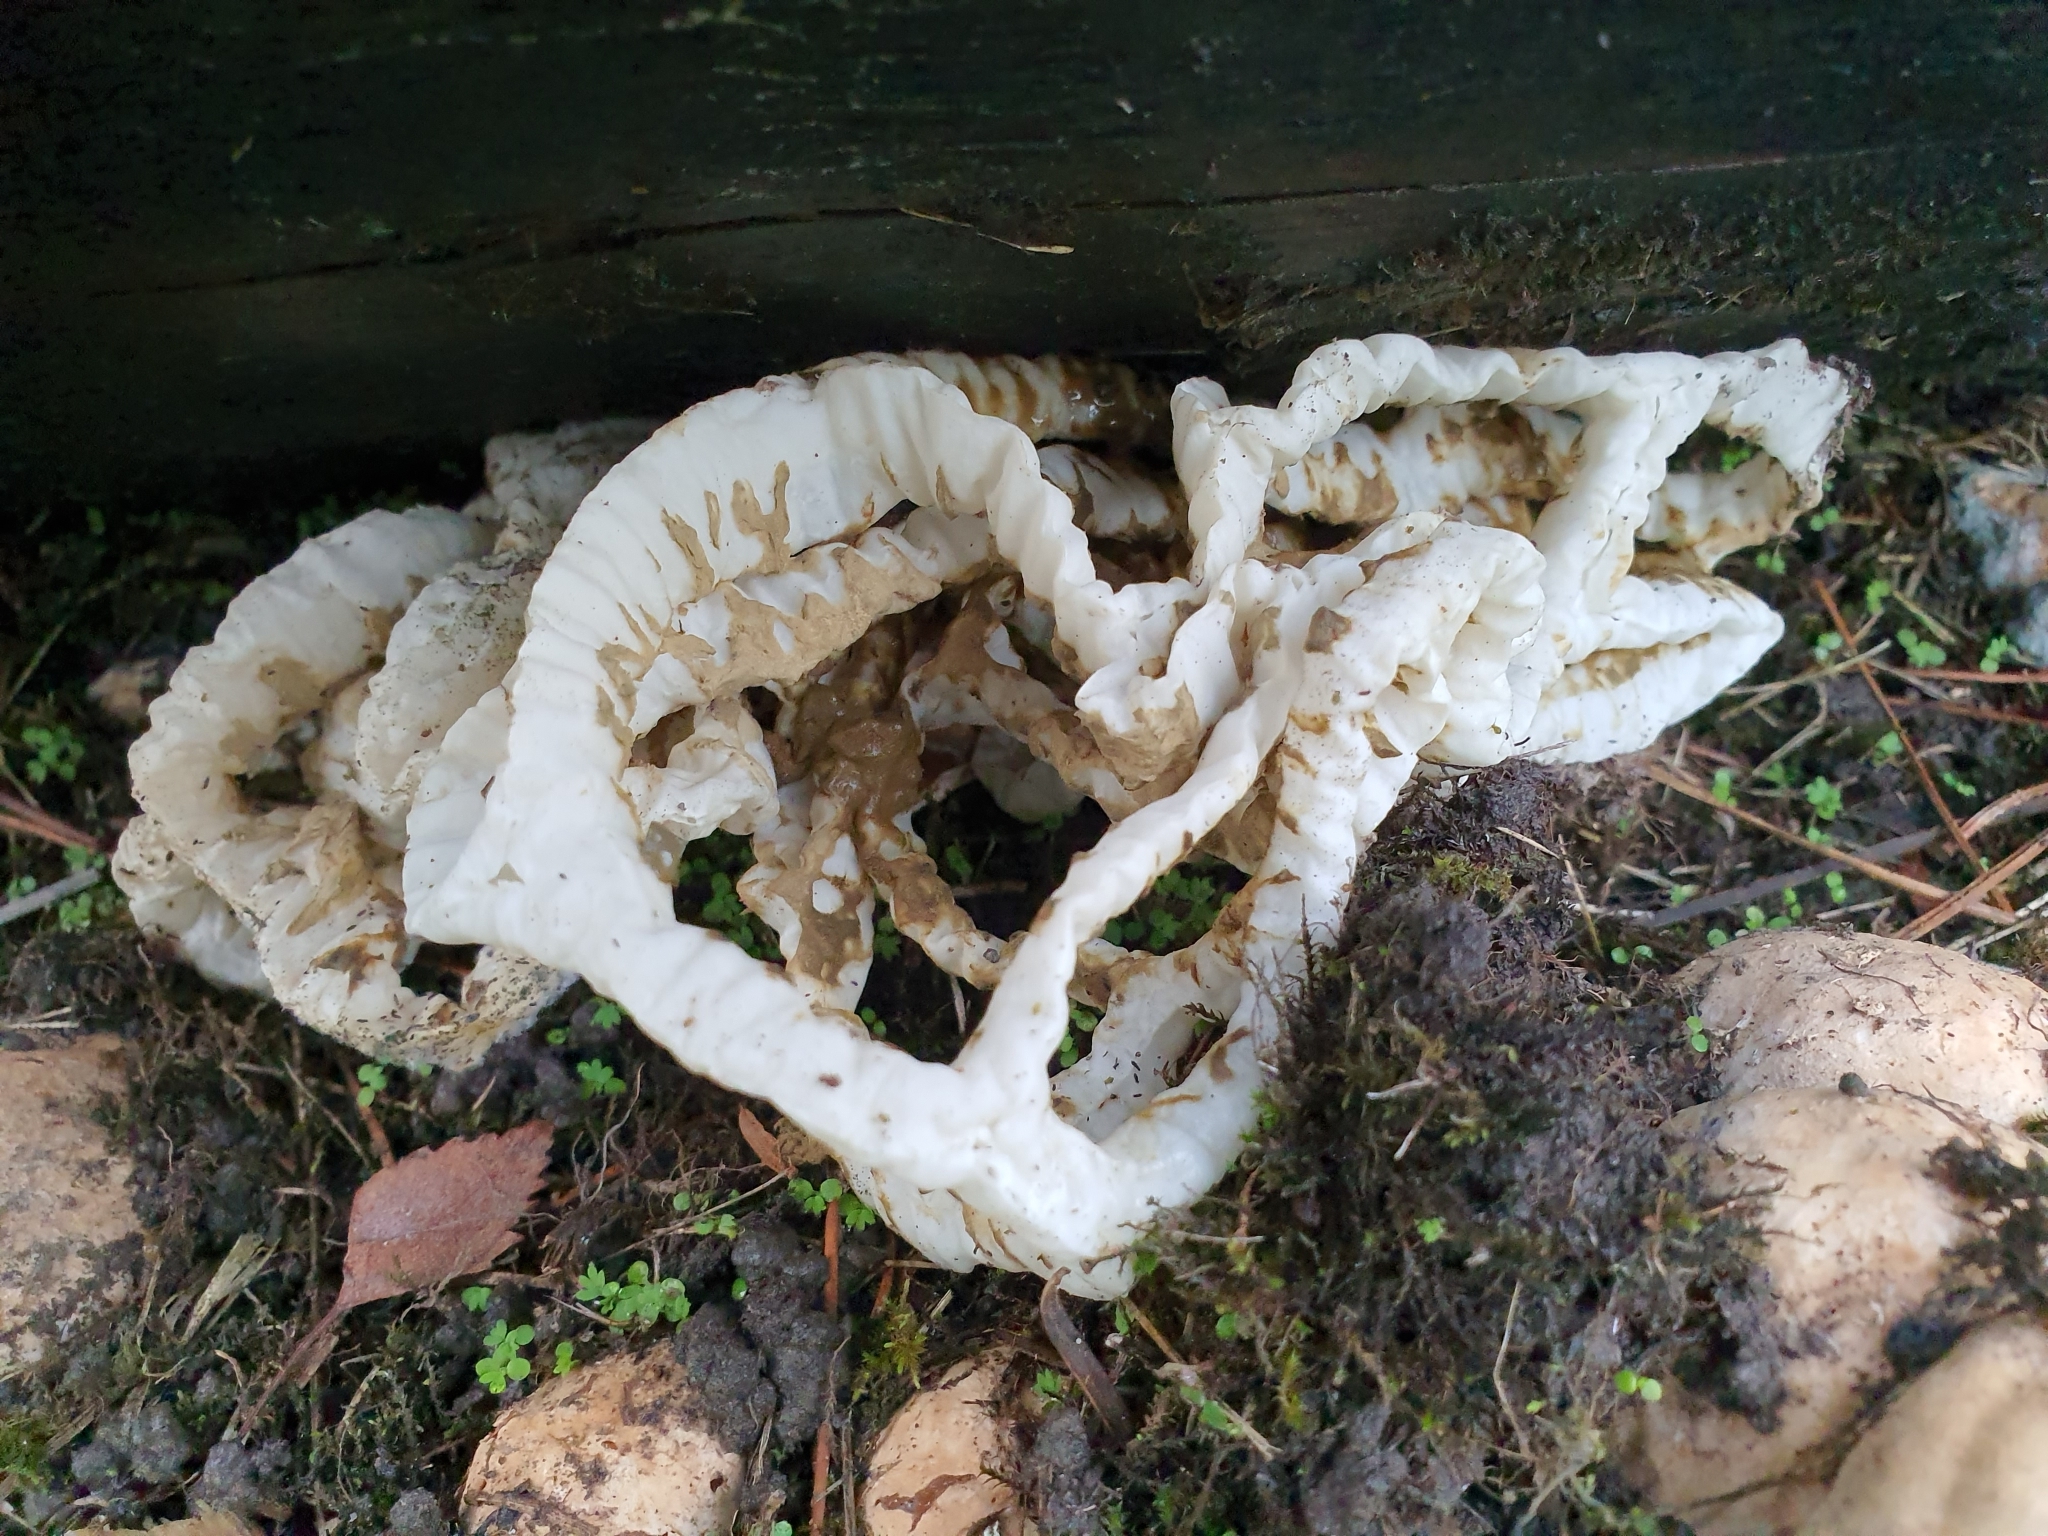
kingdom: Fungi
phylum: Basidiomycota
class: Agaricomycetes
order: Phallales
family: Phallaceae
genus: Ileodictyon
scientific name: Ileodictyon cibarium
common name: Basket fungus
